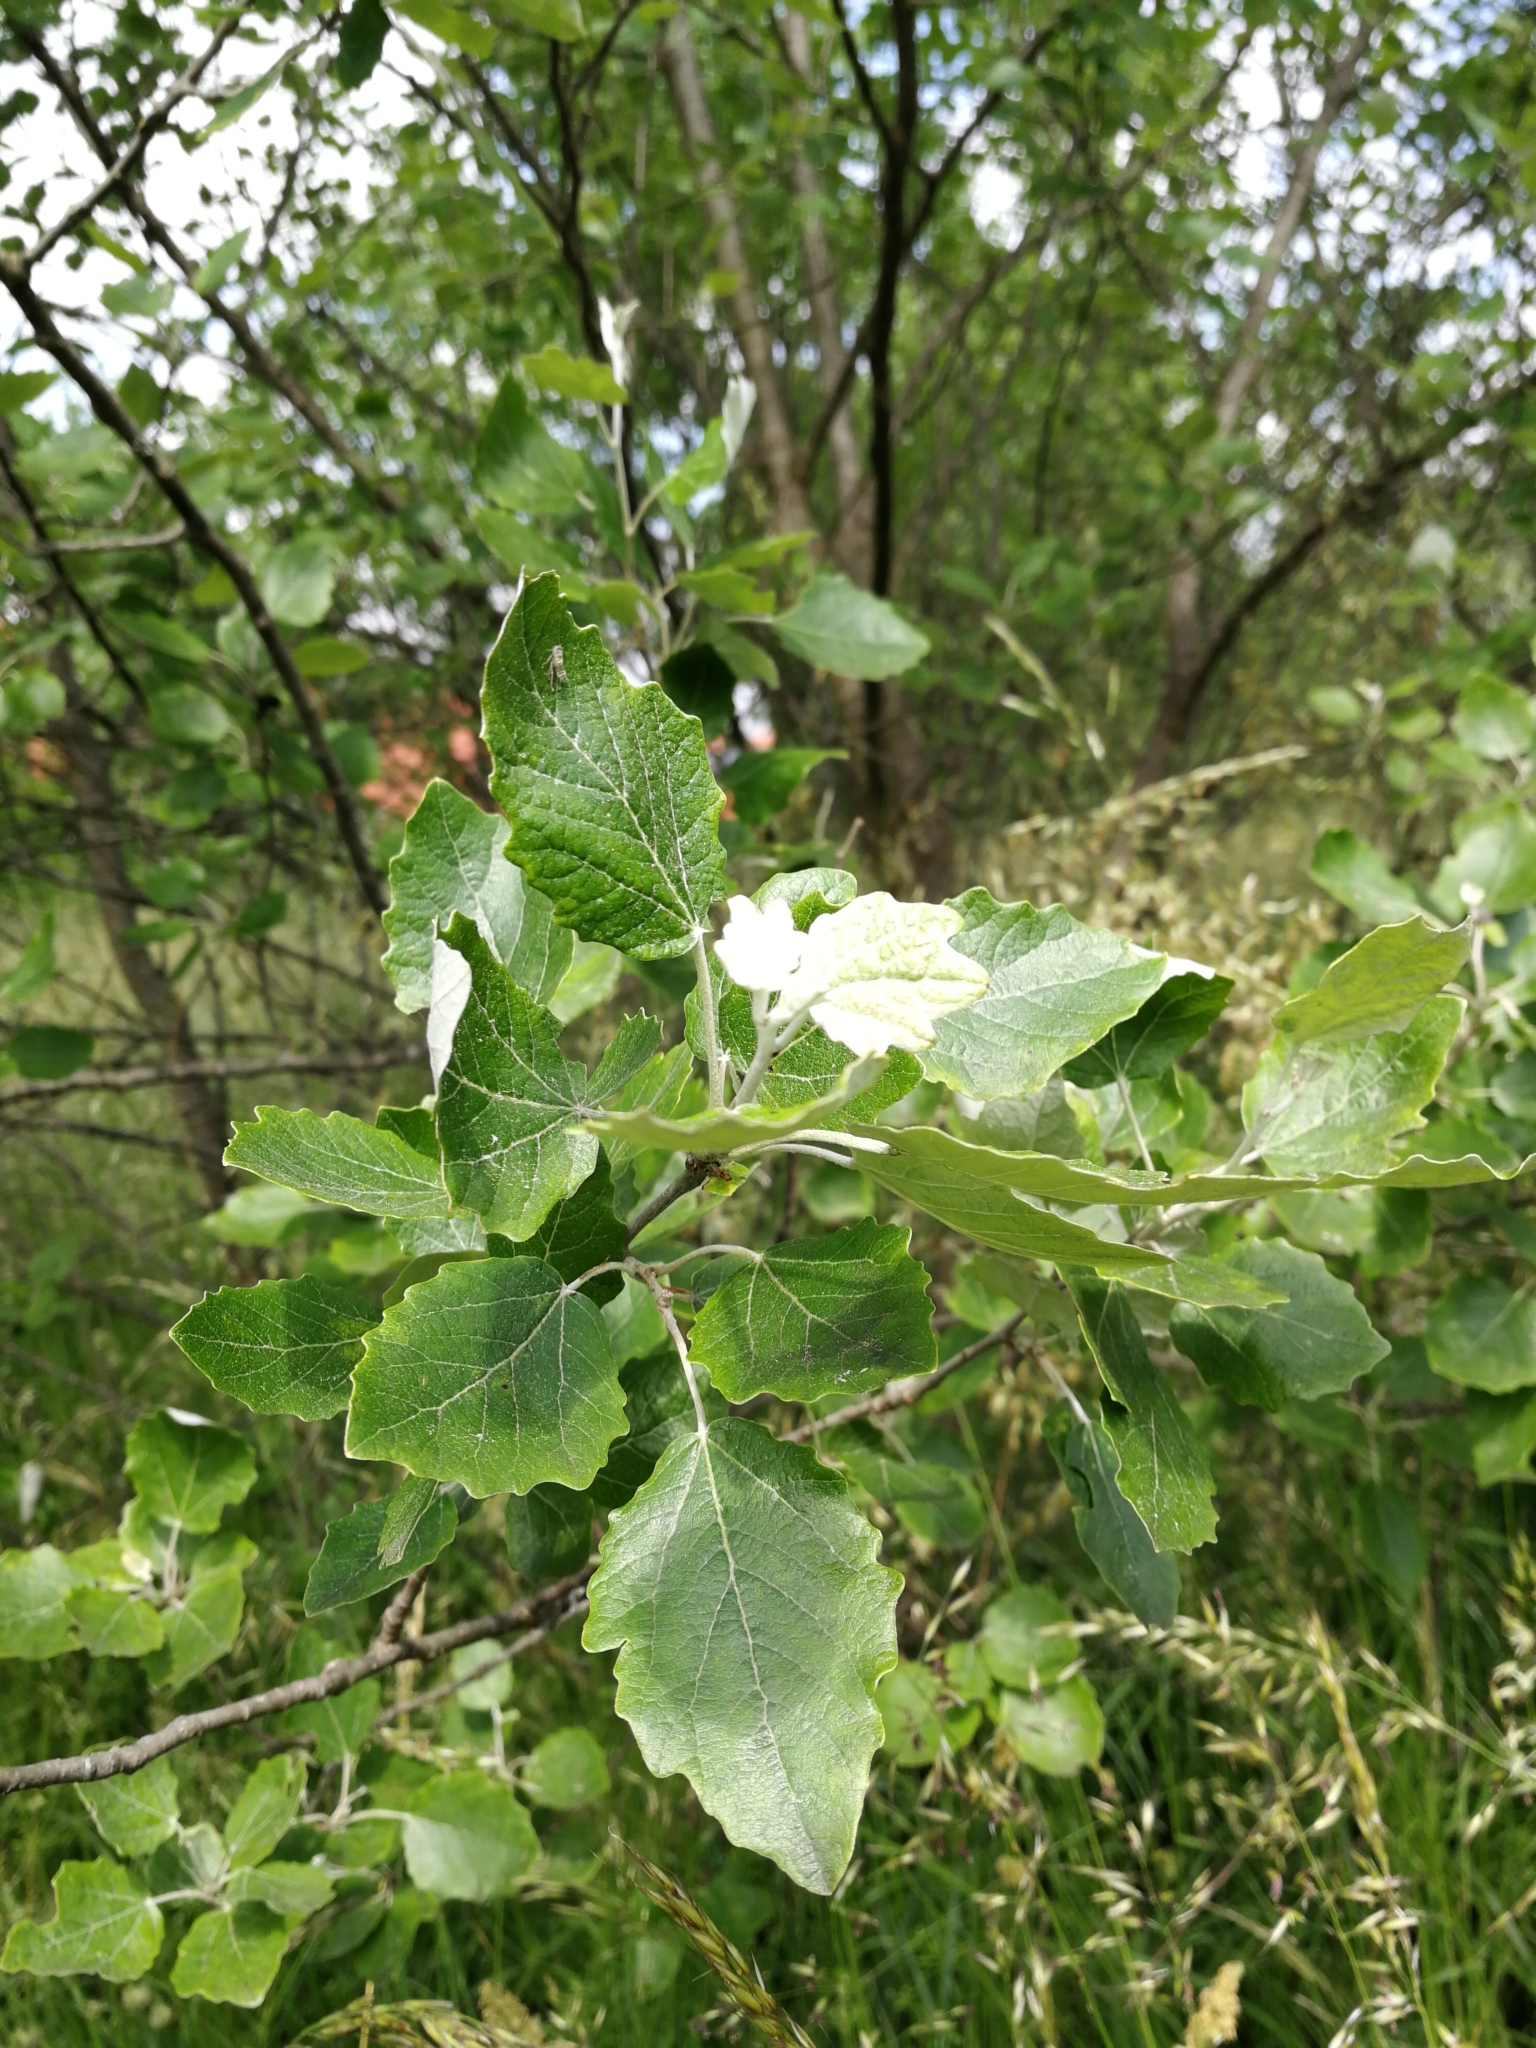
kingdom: Plantae
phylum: Tracheophyta
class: Magnoliopsida
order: Malpighiales
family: Salicaceae
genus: Populus
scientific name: Populus alba
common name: White poplar
